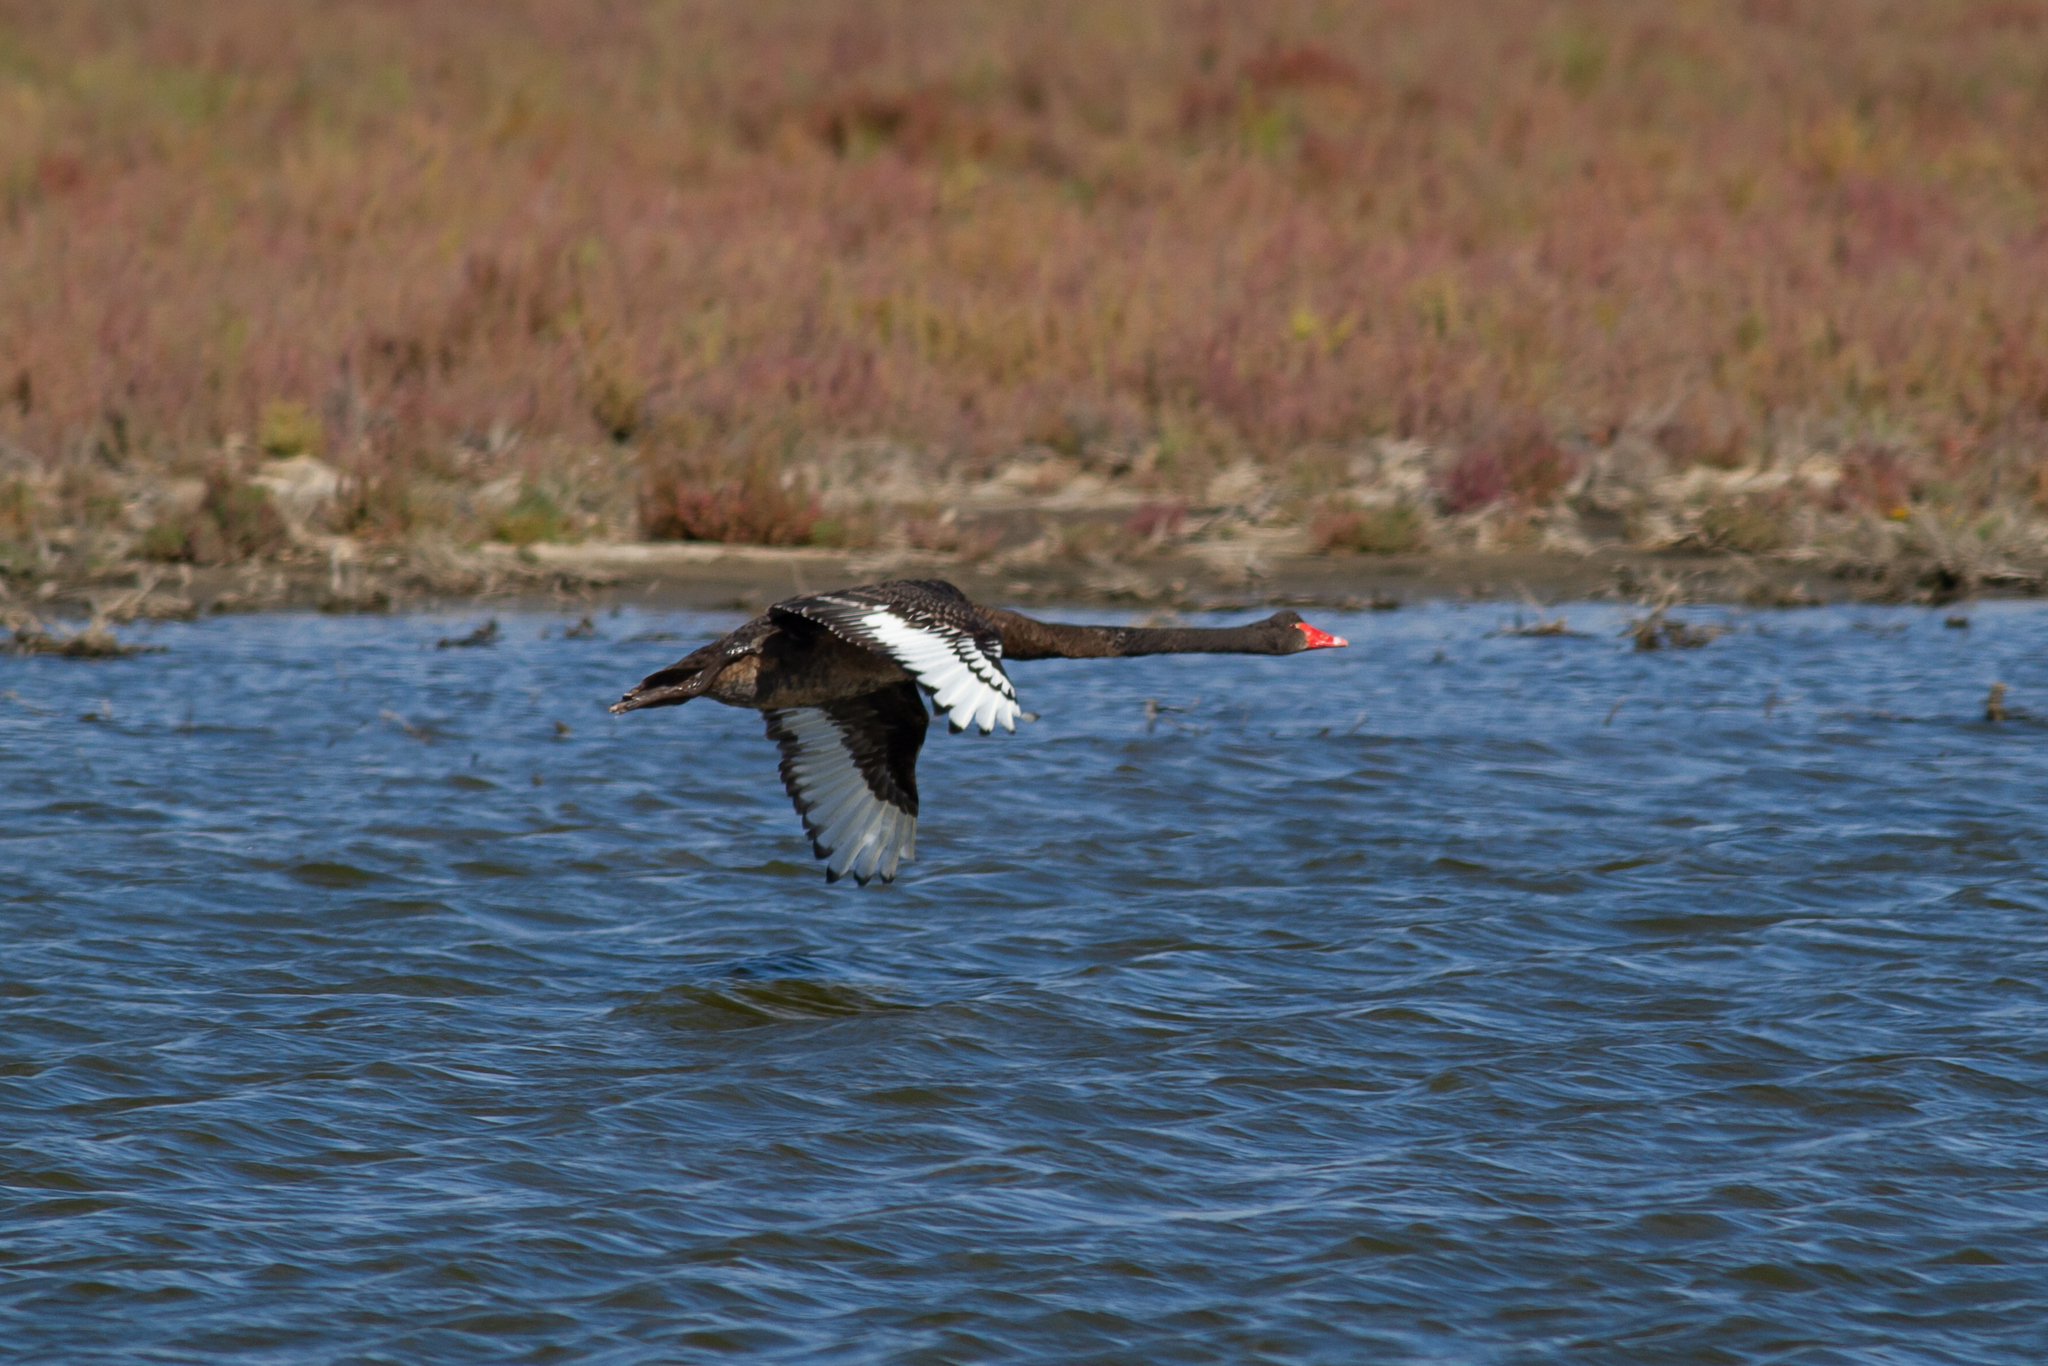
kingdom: Animalia
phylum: Chordata
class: Aves
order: Anseriformes
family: Anatidae
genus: Cygnus
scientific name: Cygnus atratus
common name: Black swan
